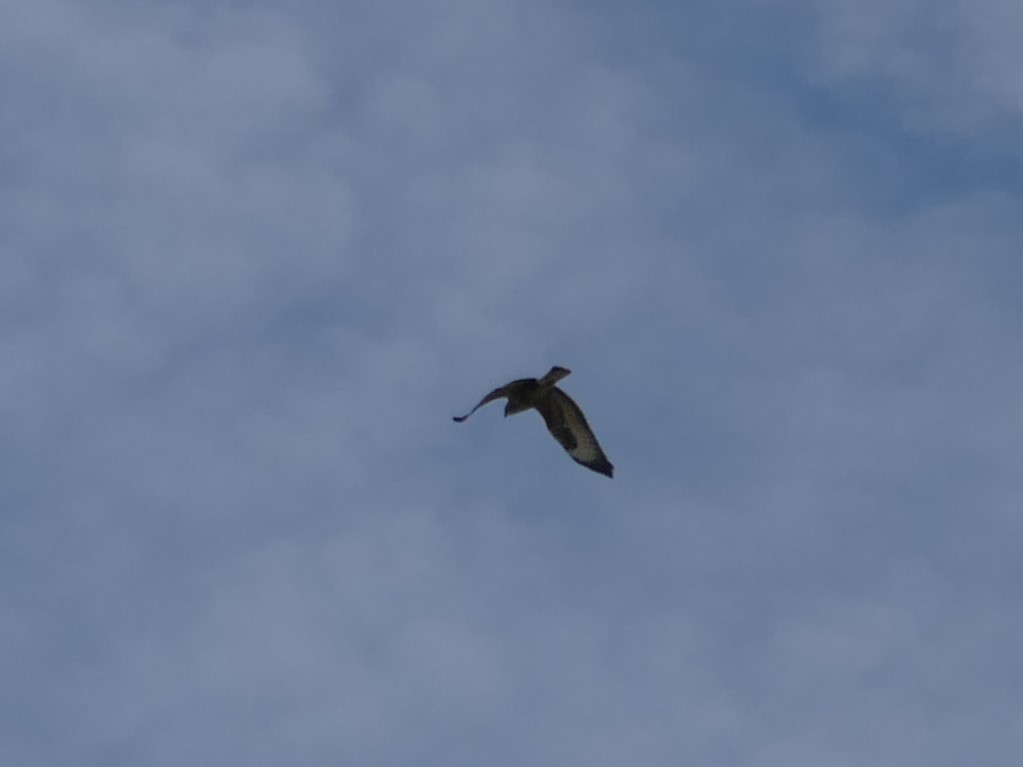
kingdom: Animalia
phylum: Chordata
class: Aves
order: Accipitriformes
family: Accipitridae
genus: Buteo
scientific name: Buteo buteo
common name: Common buzzard
